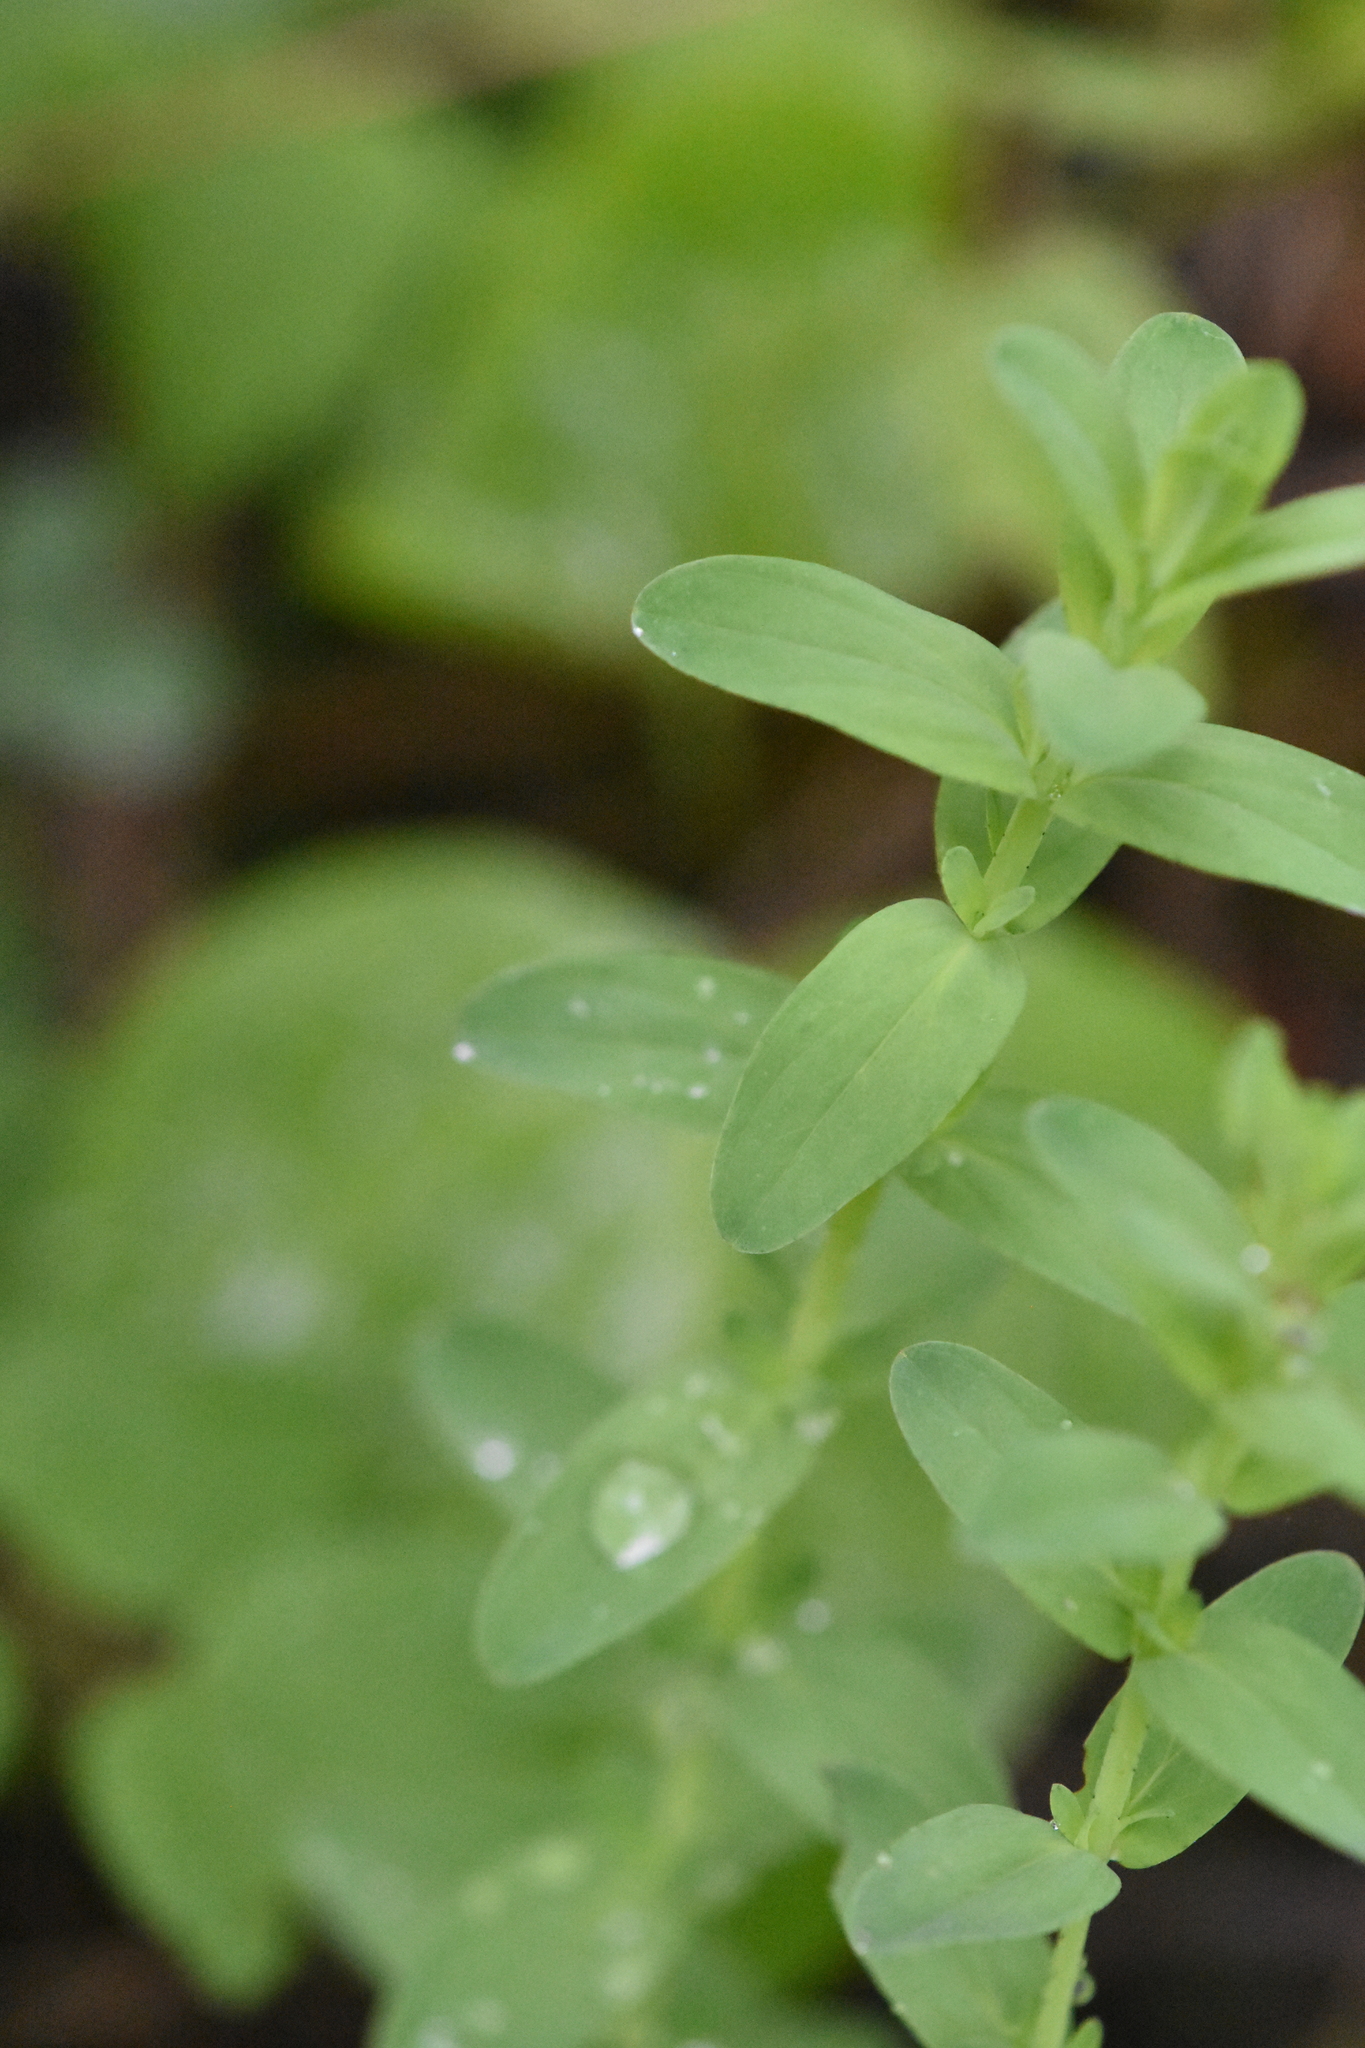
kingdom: Plantae
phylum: Tracheophyta
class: Magnoliopsida
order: Malpighiales
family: Hypericaceae
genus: Hypericum
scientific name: Hypericum perforatum
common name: Common st. johnswort
